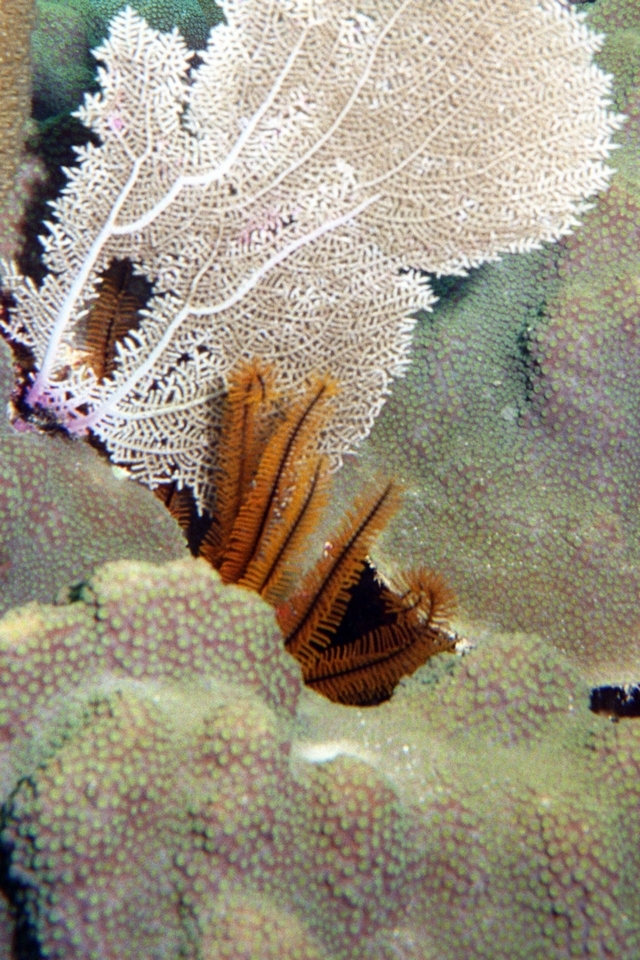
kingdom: Animalia
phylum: Echinodermata
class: Crinoidea
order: Comatulida
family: Comatulidae
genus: Davidaster
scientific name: Davidaster rubiginosus
